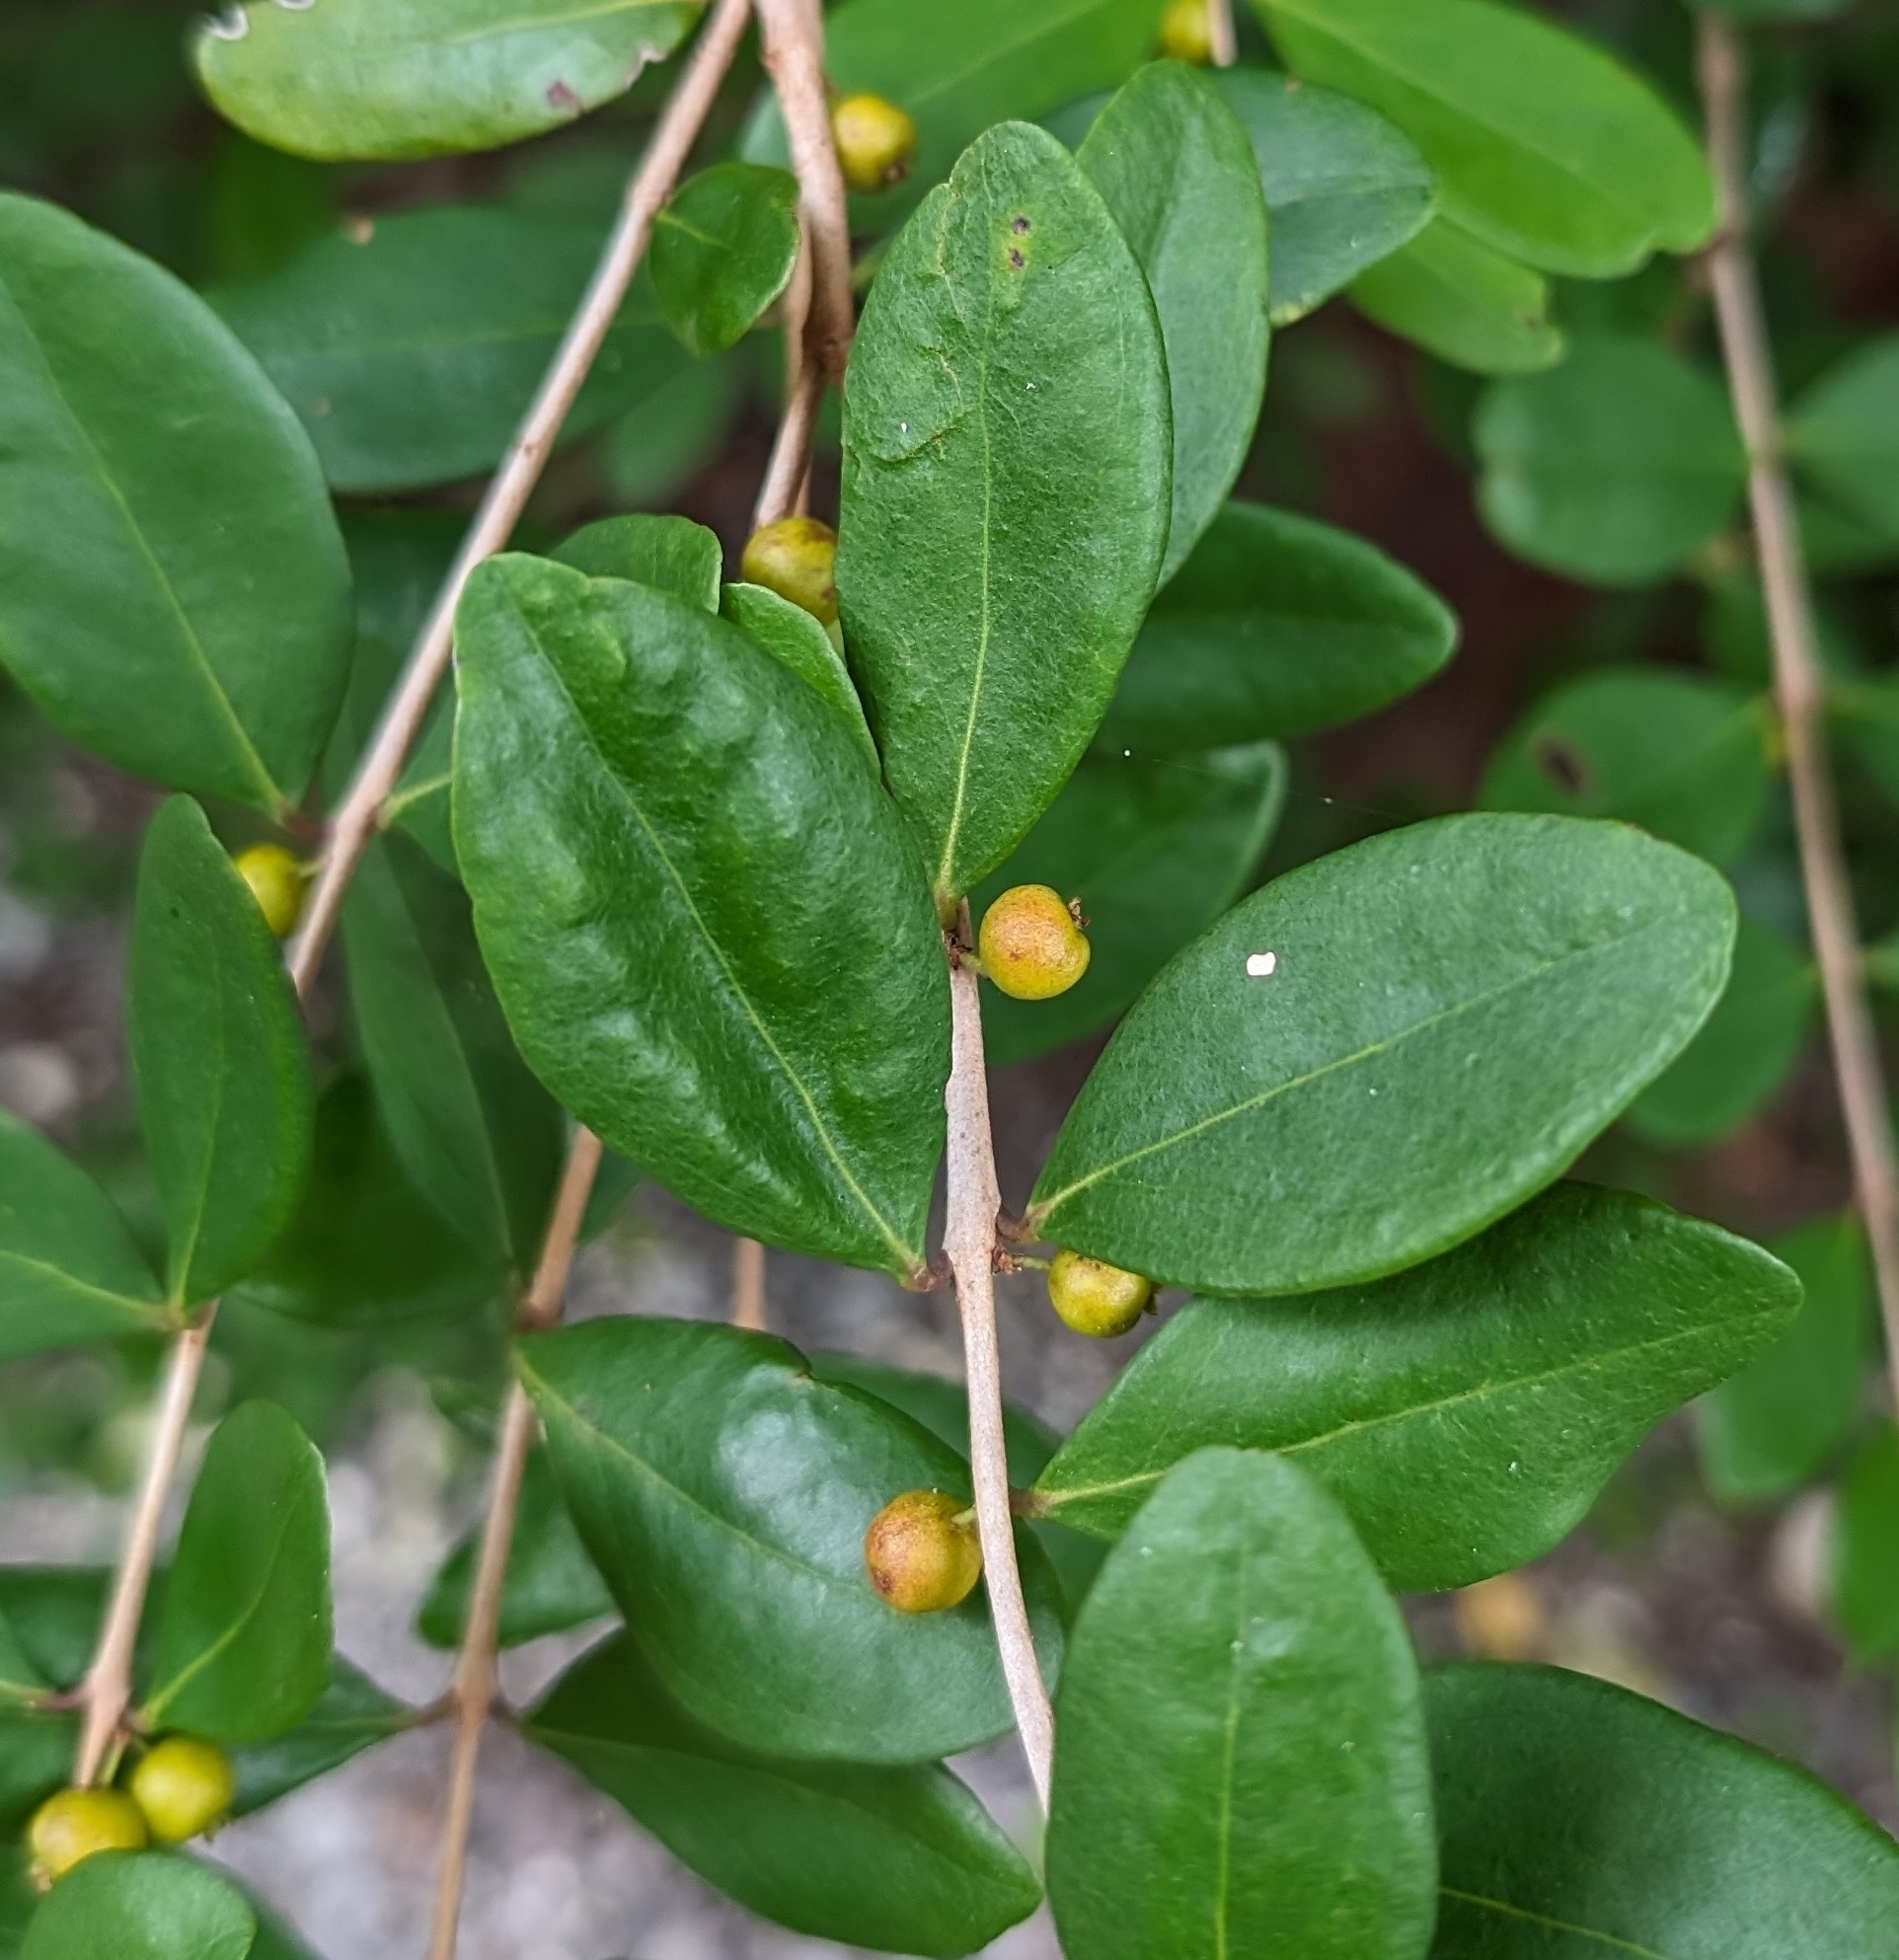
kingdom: Plantae
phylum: Tracheophyta
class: Magnoliopsida
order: Myrtales
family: Myrtaceae
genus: Eugenia
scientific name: Eugenia foetida
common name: White wattling
